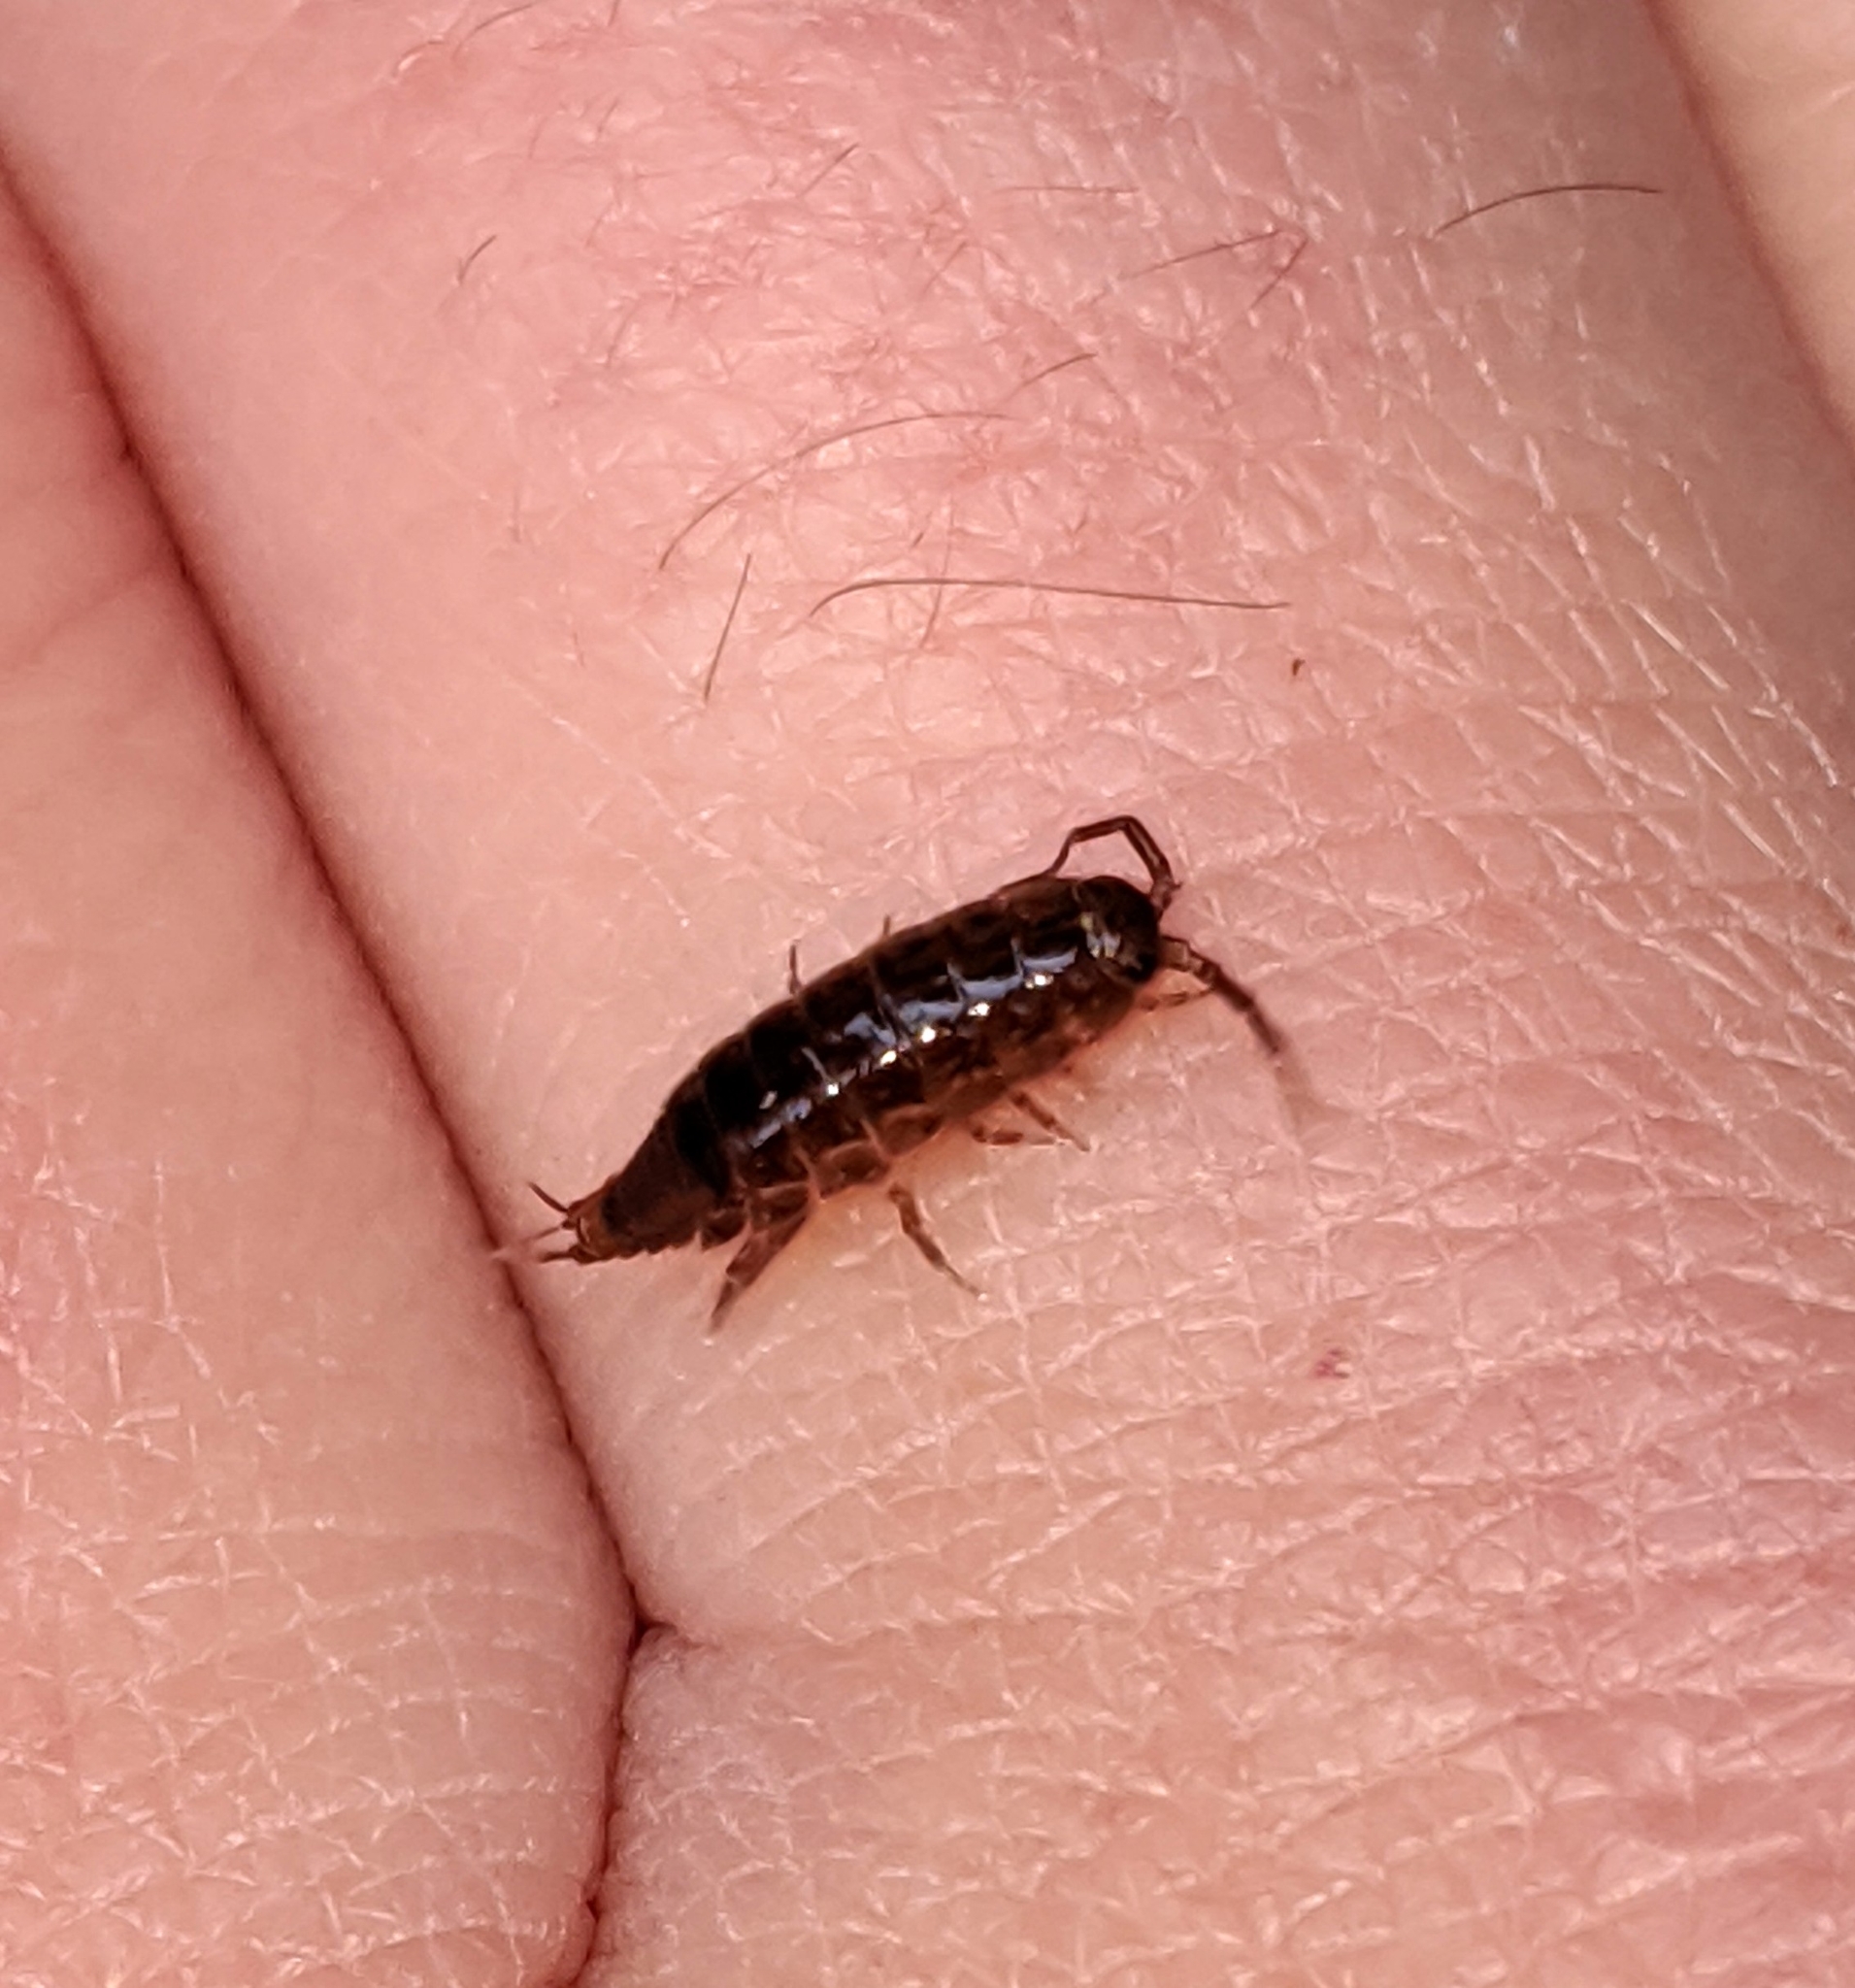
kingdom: Animalia
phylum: Arthropoda
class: Malacostraca
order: Isopoda
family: Ligiidae
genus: Ligidium
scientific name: Ligidium gracile
